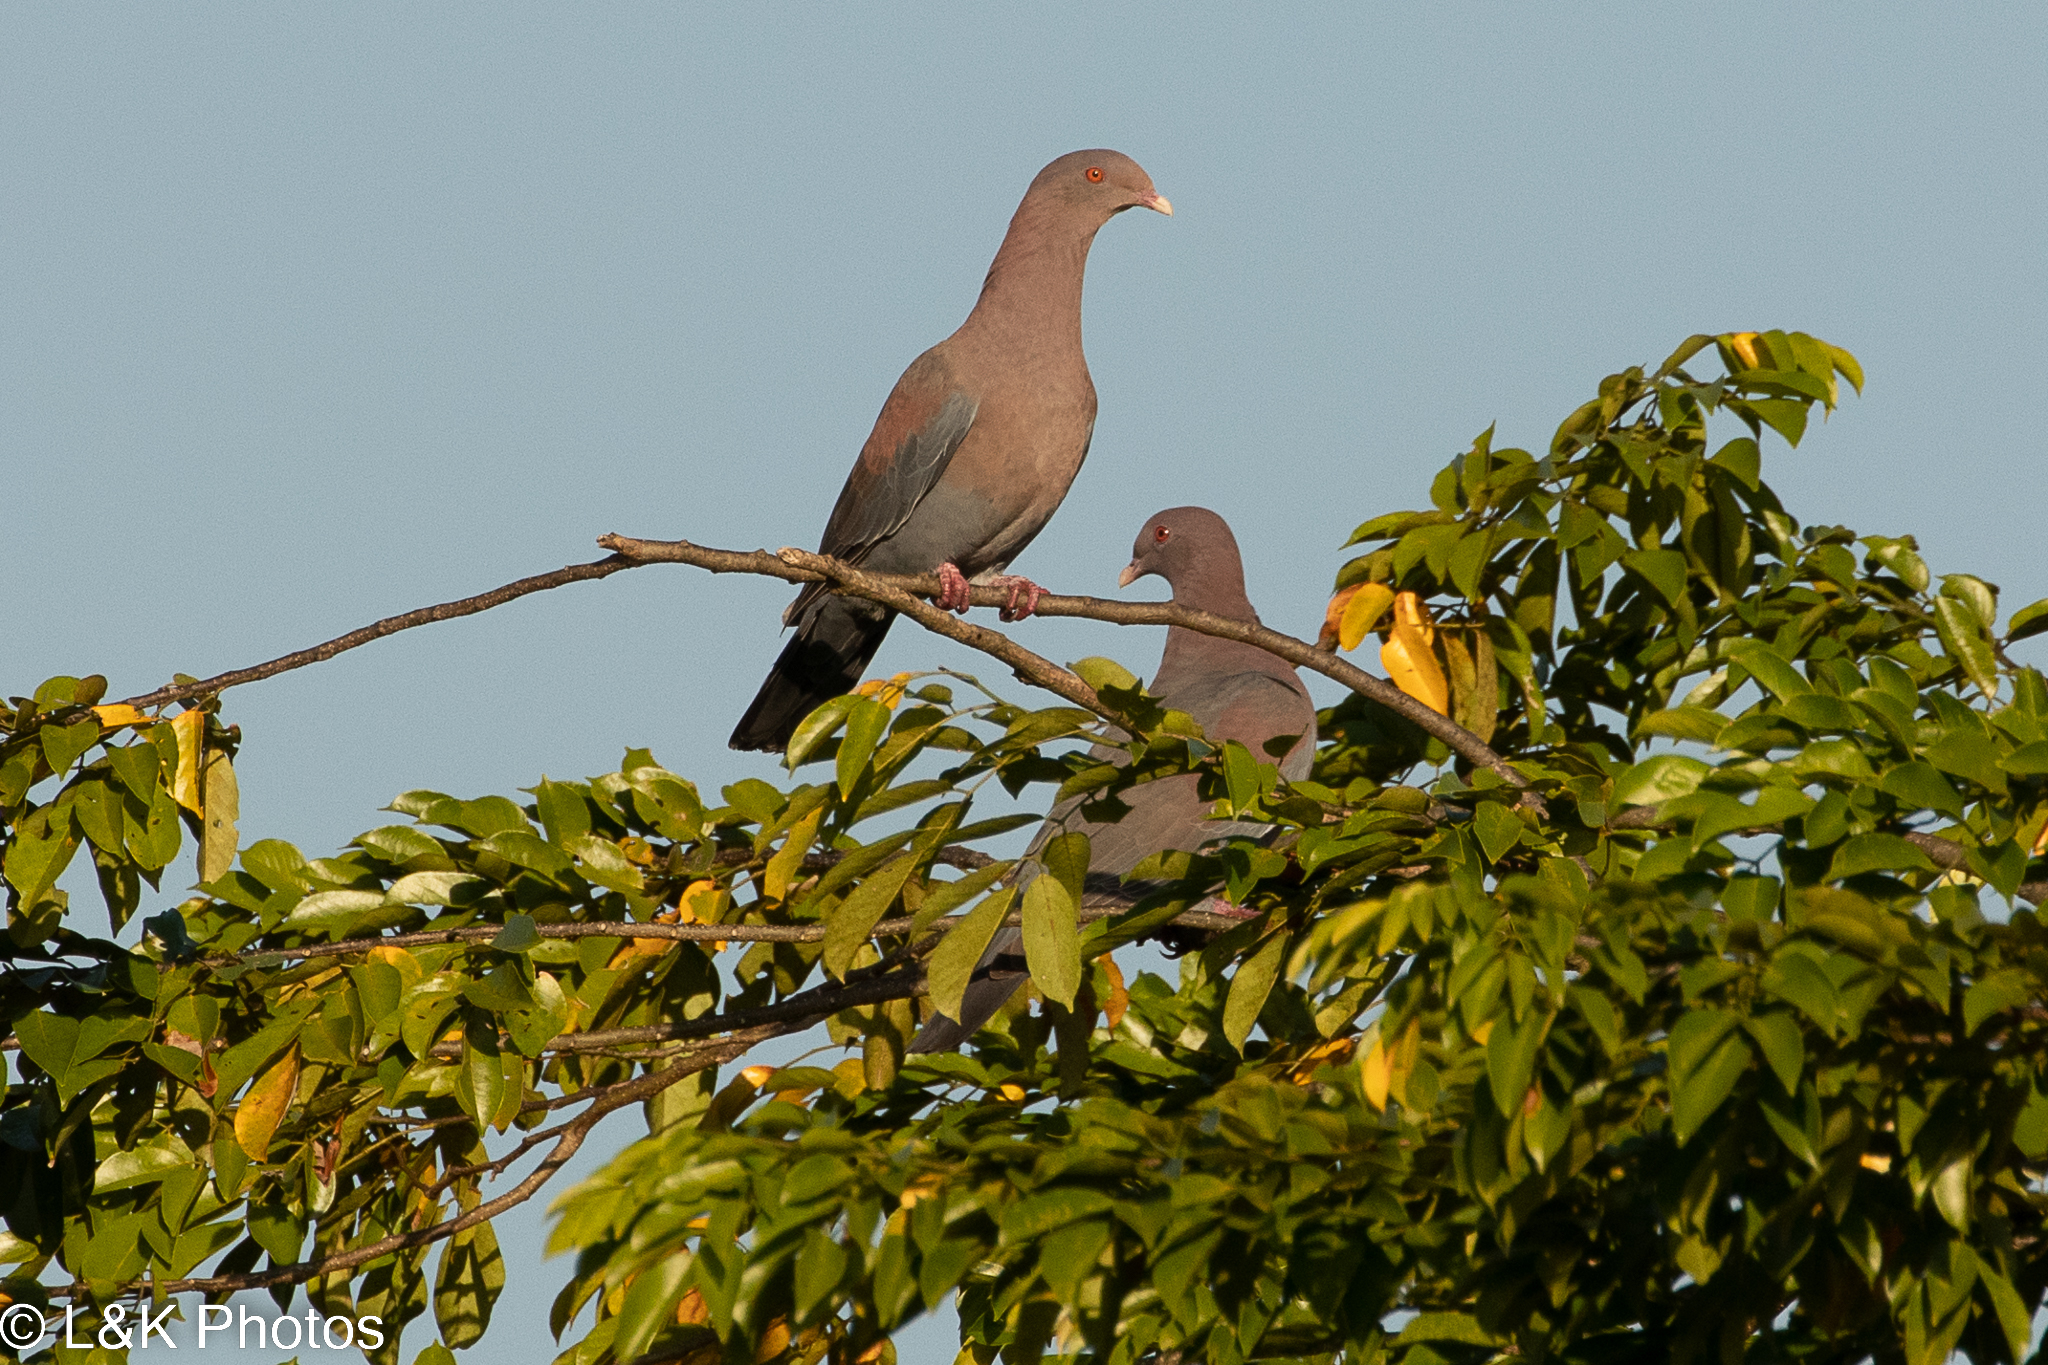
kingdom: Animalia
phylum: Chordata
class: Aves
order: Columbiformes
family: Columbidae
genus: Patagioenas
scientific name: Patagioenas flavirostris
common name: Red-billed pigeon
